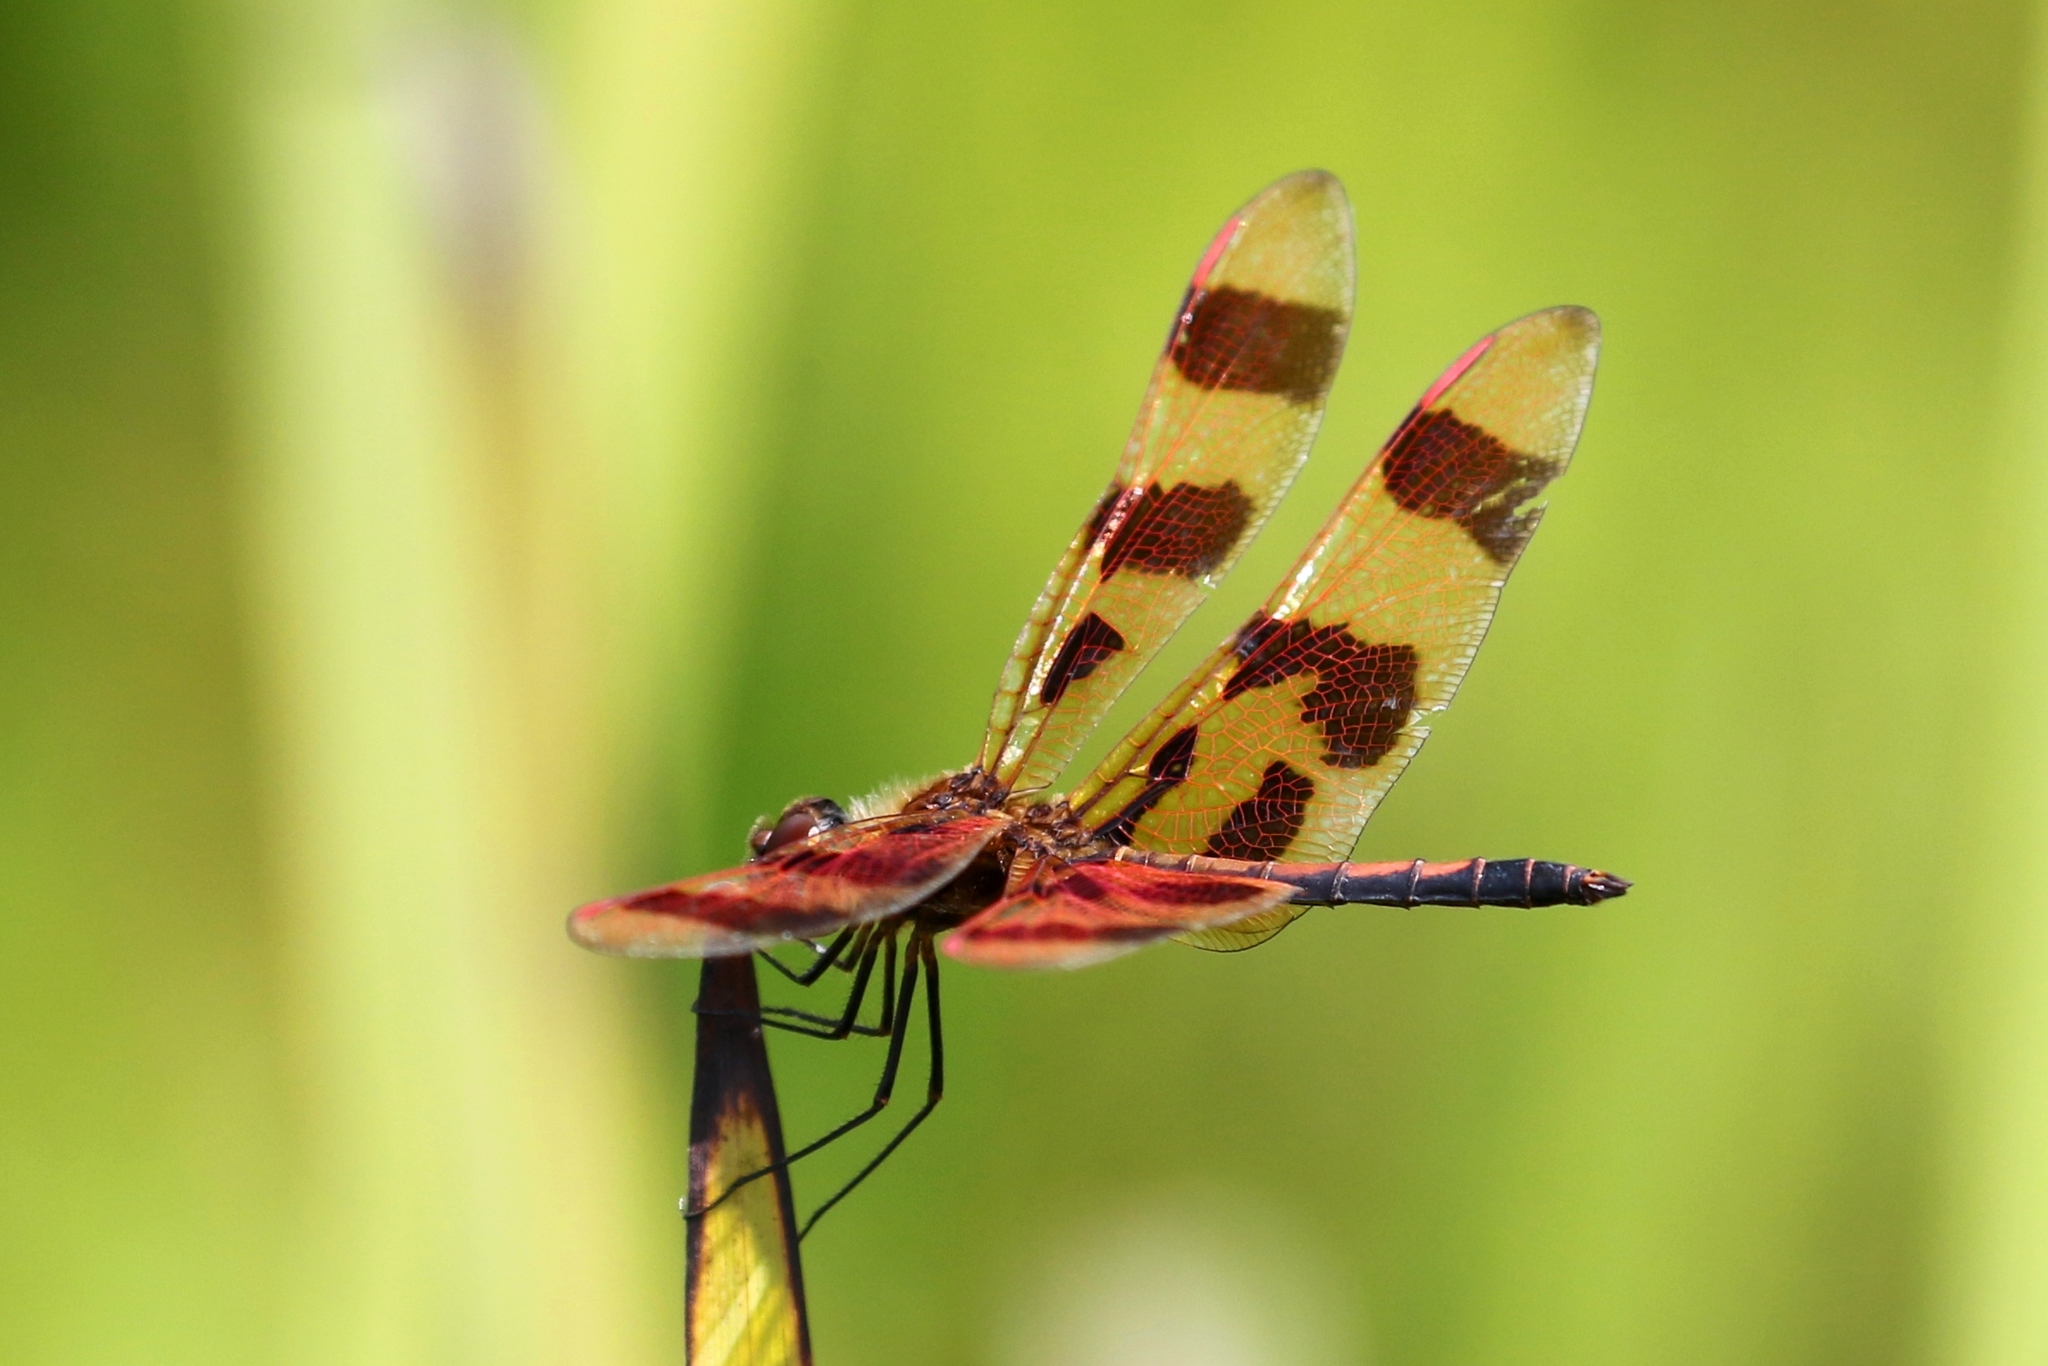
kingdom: Animalia
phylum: Arthropoda
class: Insecta
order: Odonata
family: Libellulidae
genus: Celithemis
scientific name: Celithemis eponina
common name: Halloween pennant
